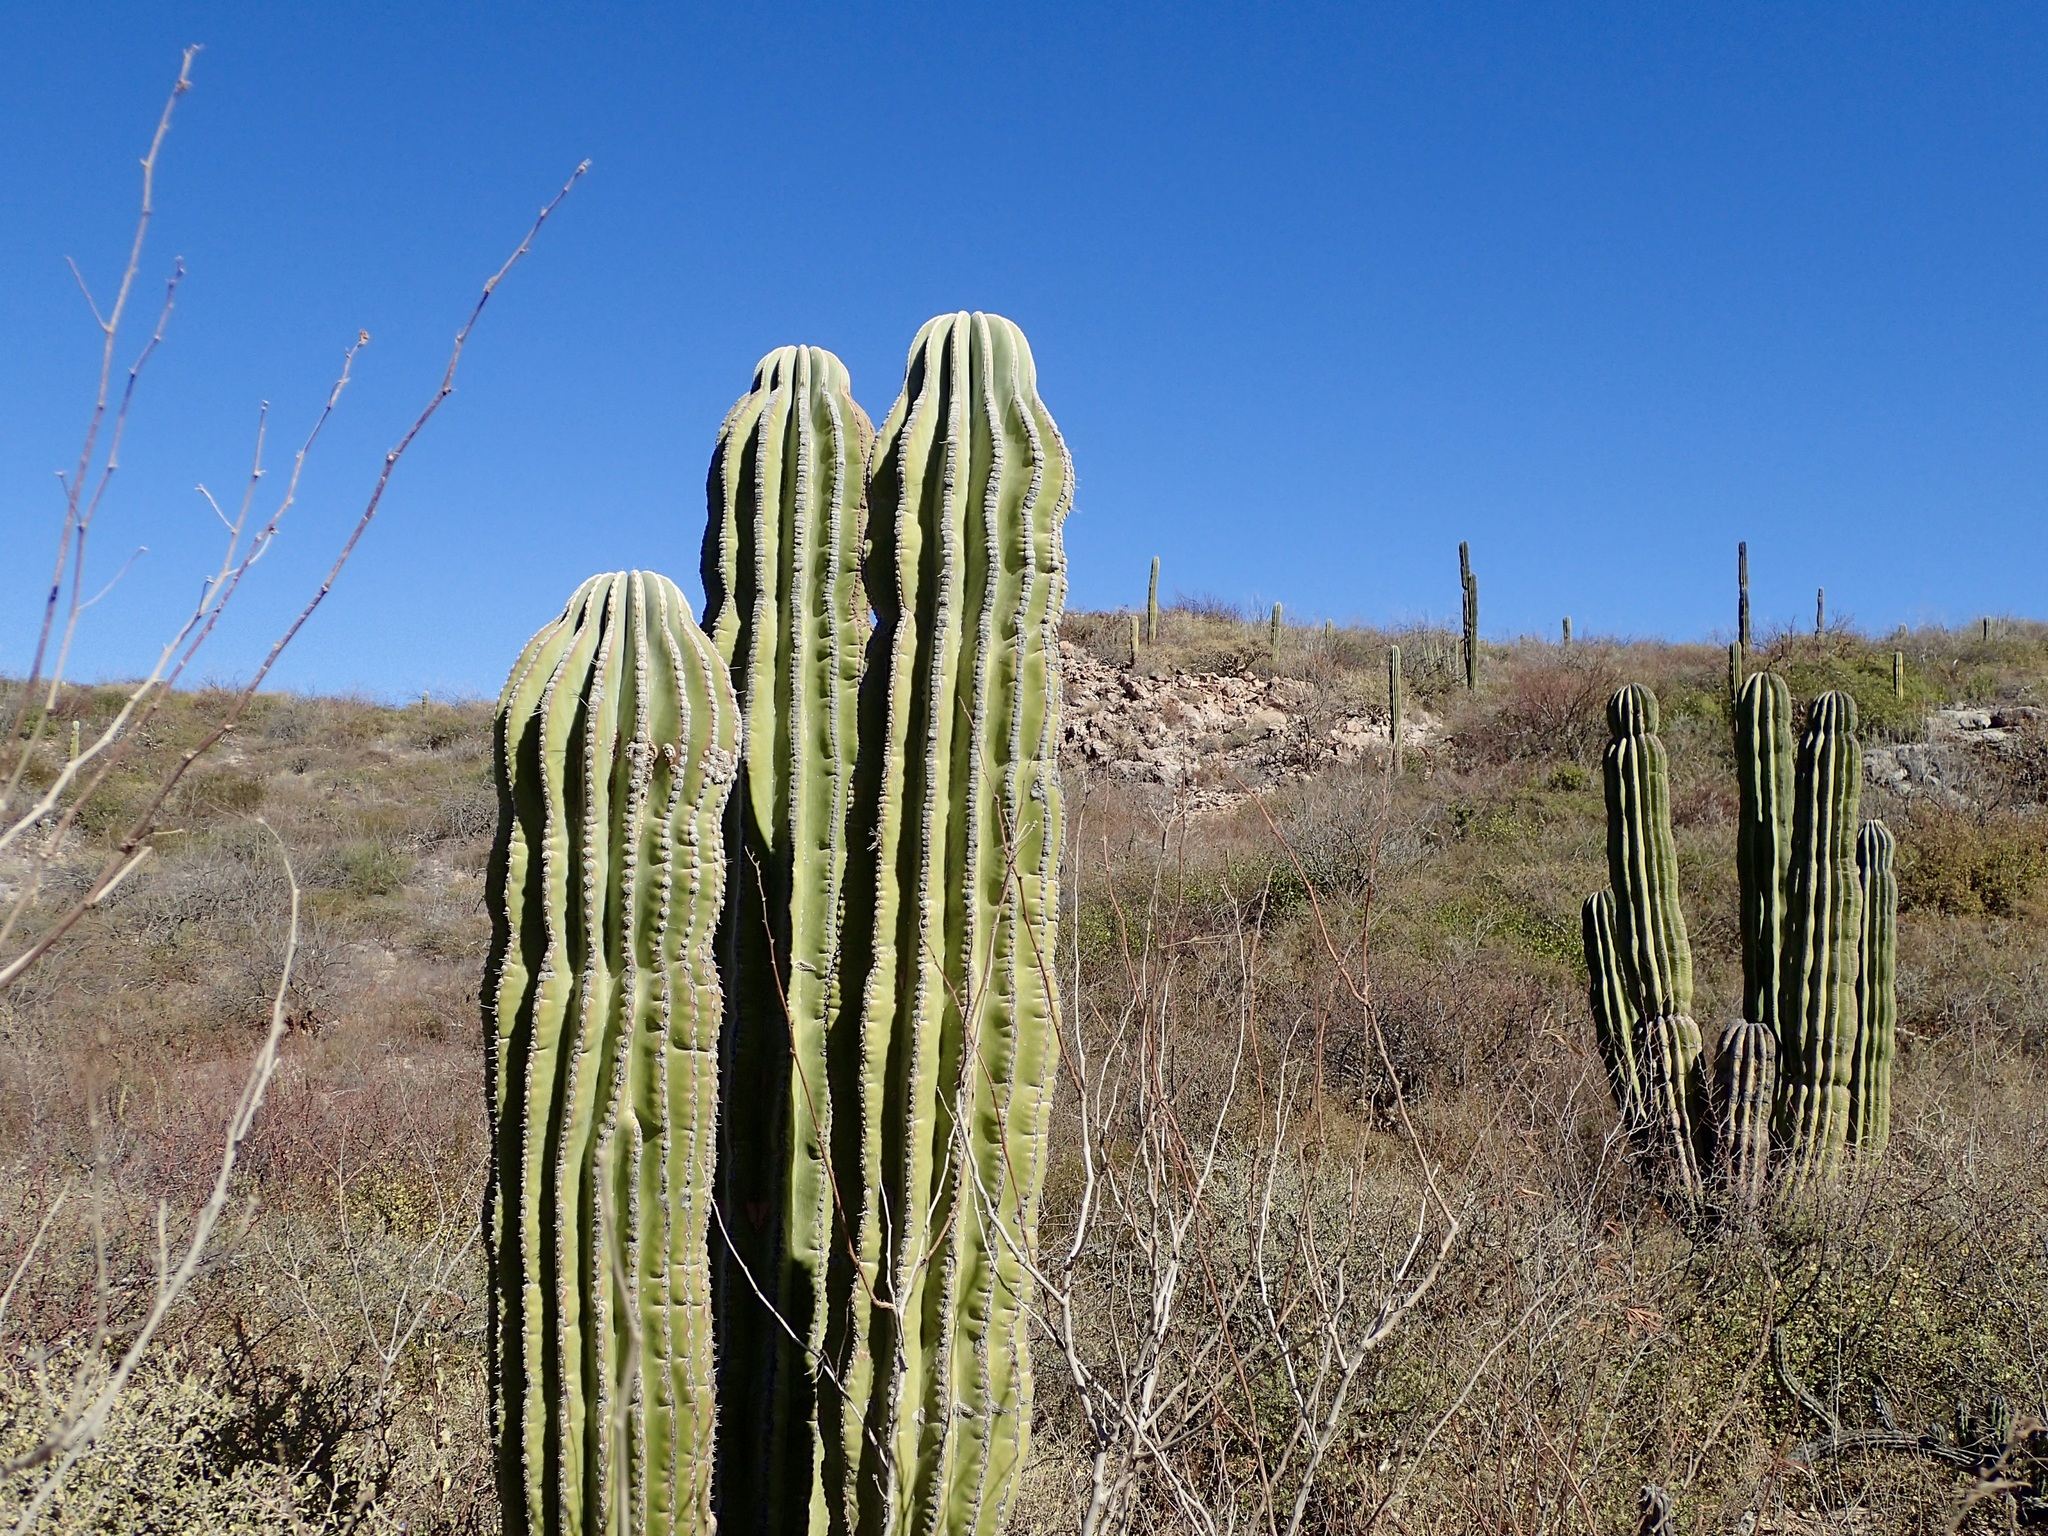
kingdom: Plantae
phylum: Tracheophyta
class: Magnoliopsida
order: Caryophyllales
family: Cactaceae
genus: Pachycereus
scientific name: Pachycereus pringlei
